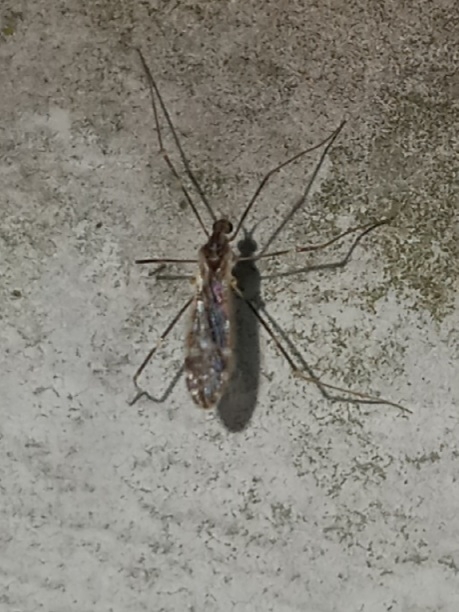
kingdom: Animalia
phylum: Arthropoda
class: Insecta
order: Diptera
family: Limoniidae
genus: Erioptera
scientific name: Erioptera caliptera
